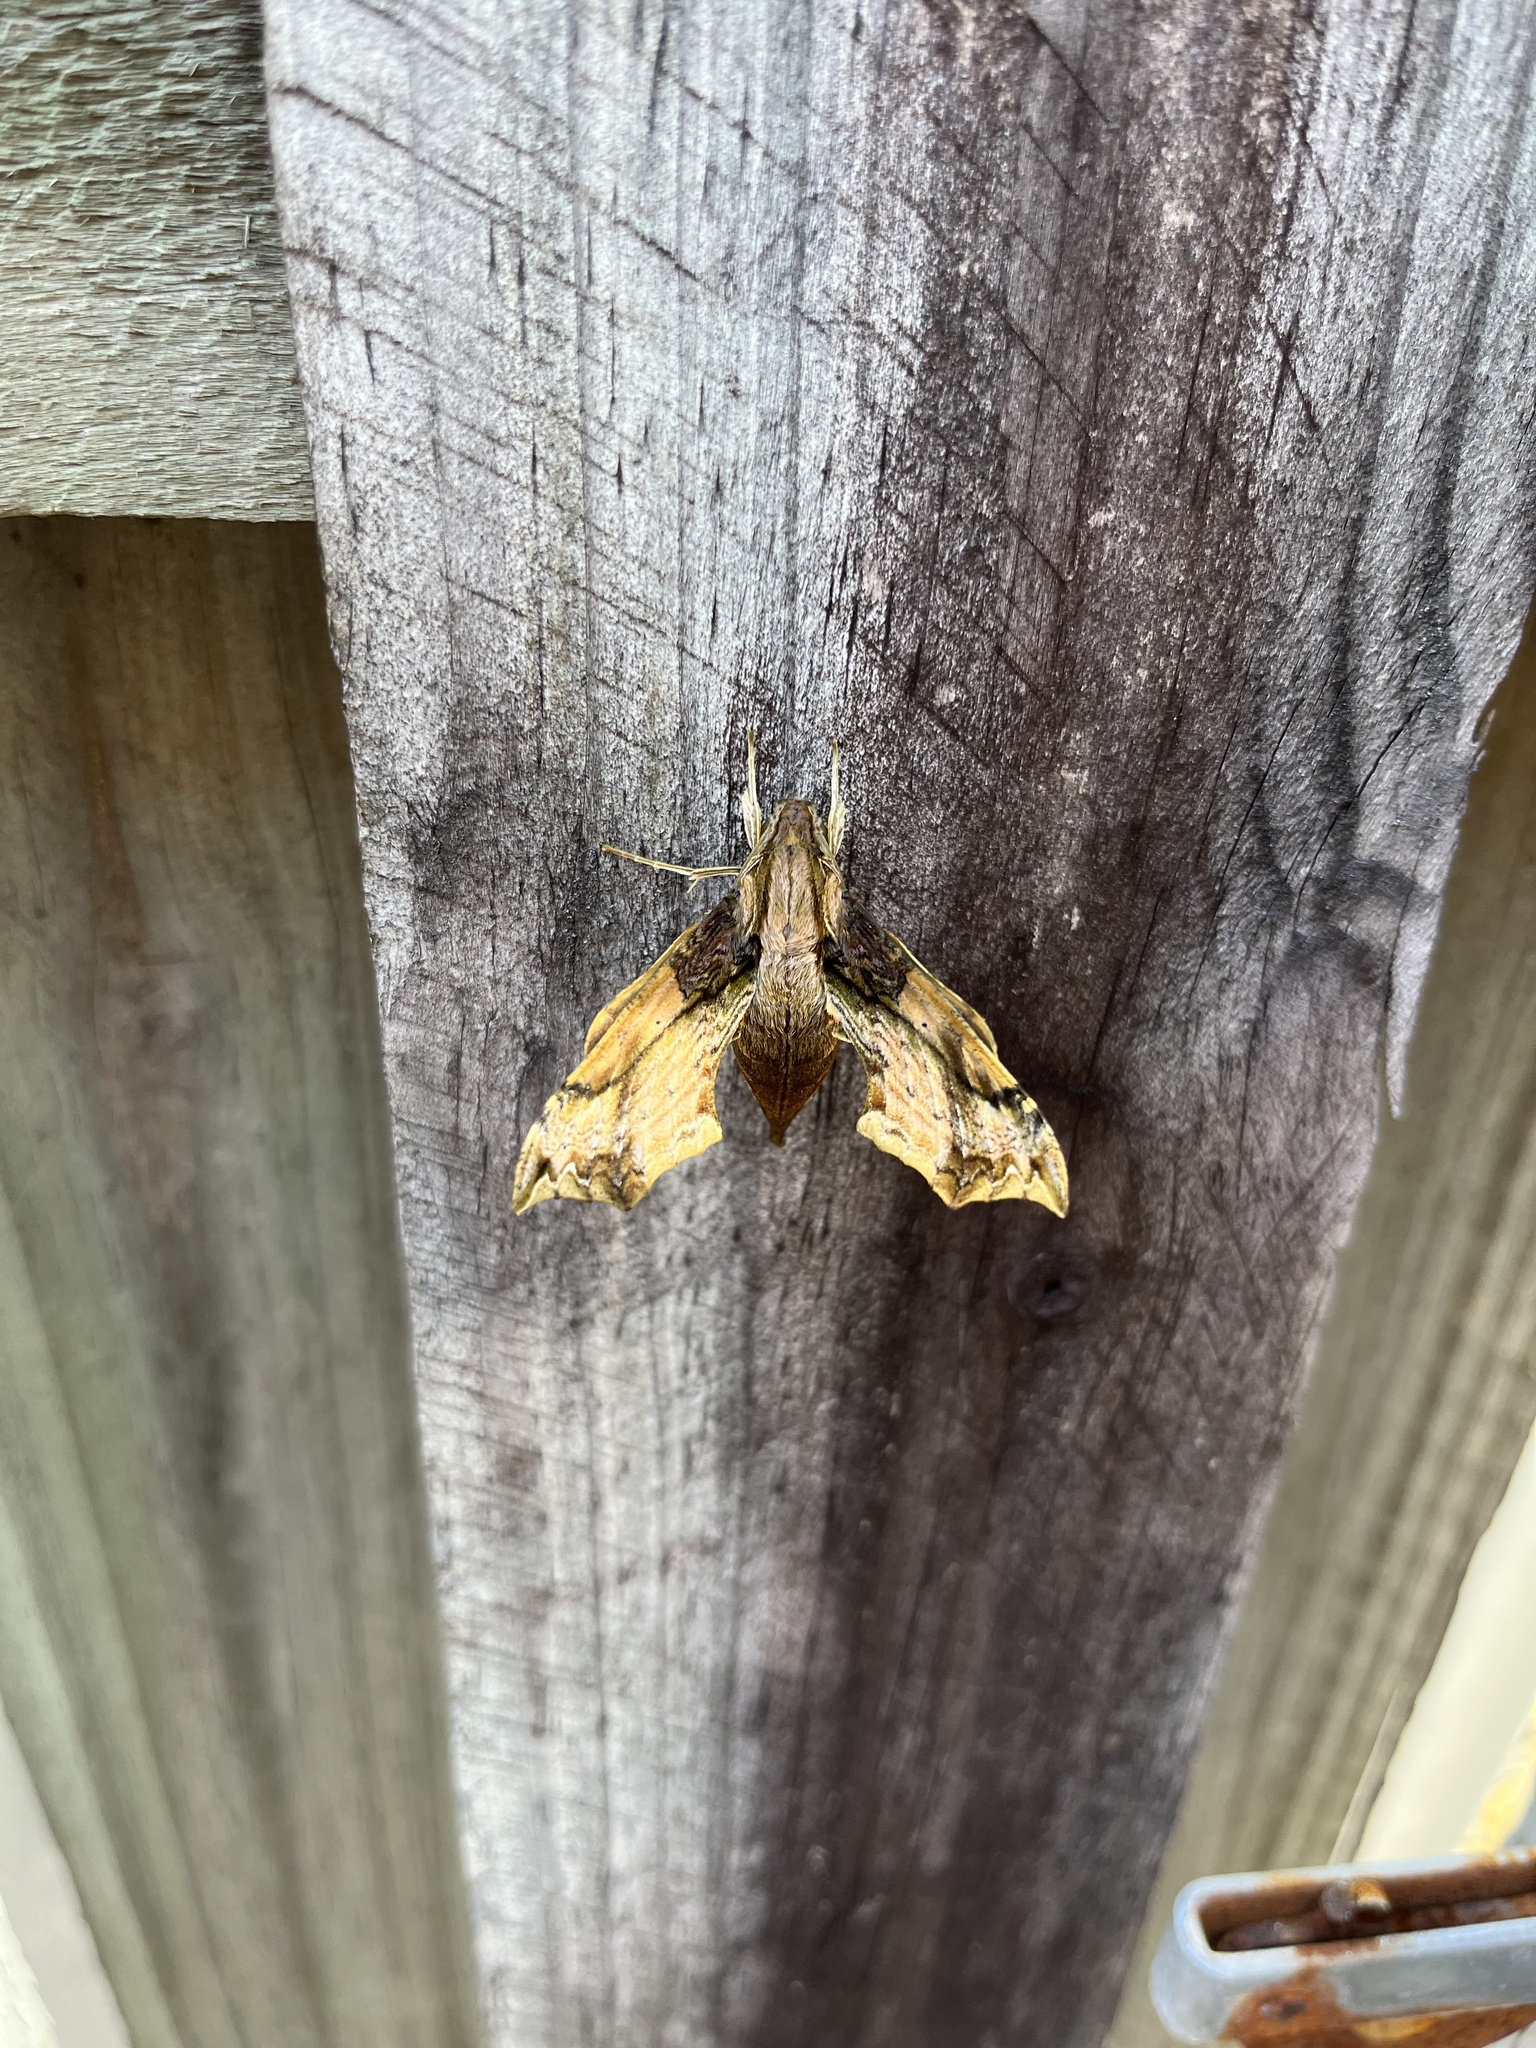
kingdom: Animalia
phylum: Arthropoda
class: Insecta
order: Lepidoptera
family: Sphingidae
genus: Eupanacra
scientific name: Eupanacra splendens
